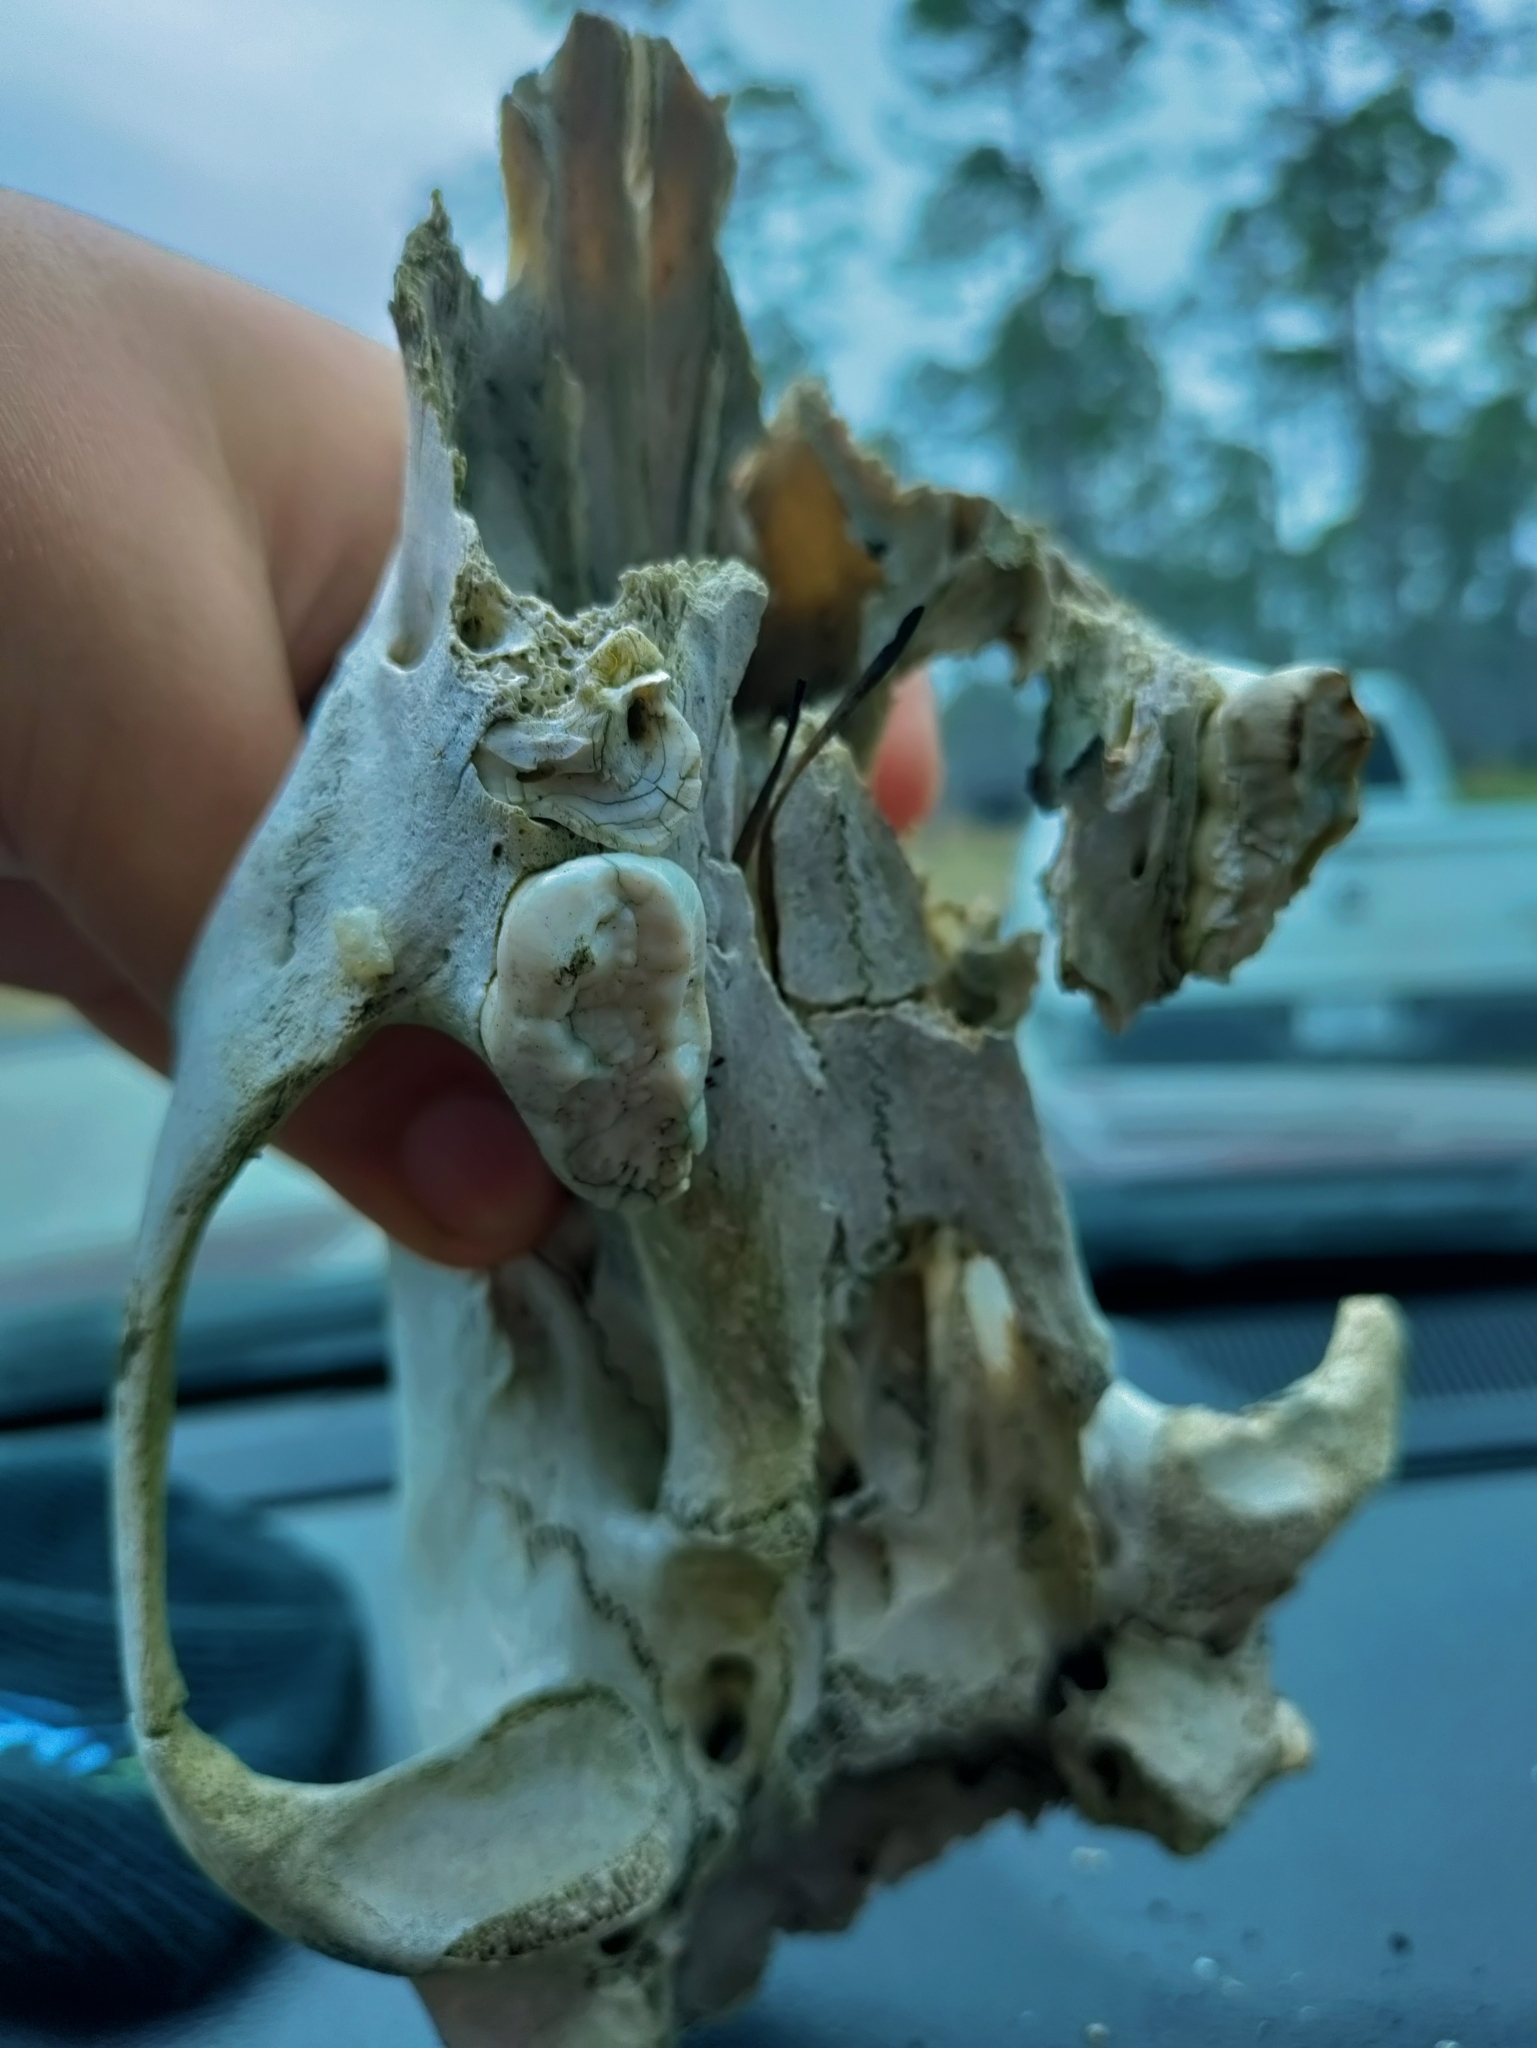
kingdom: Animalia
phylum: Chordata
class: Mammalia
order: Carnivora
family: Ursidae
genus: Ursus
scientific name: Ursus americanus
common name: American black bear
